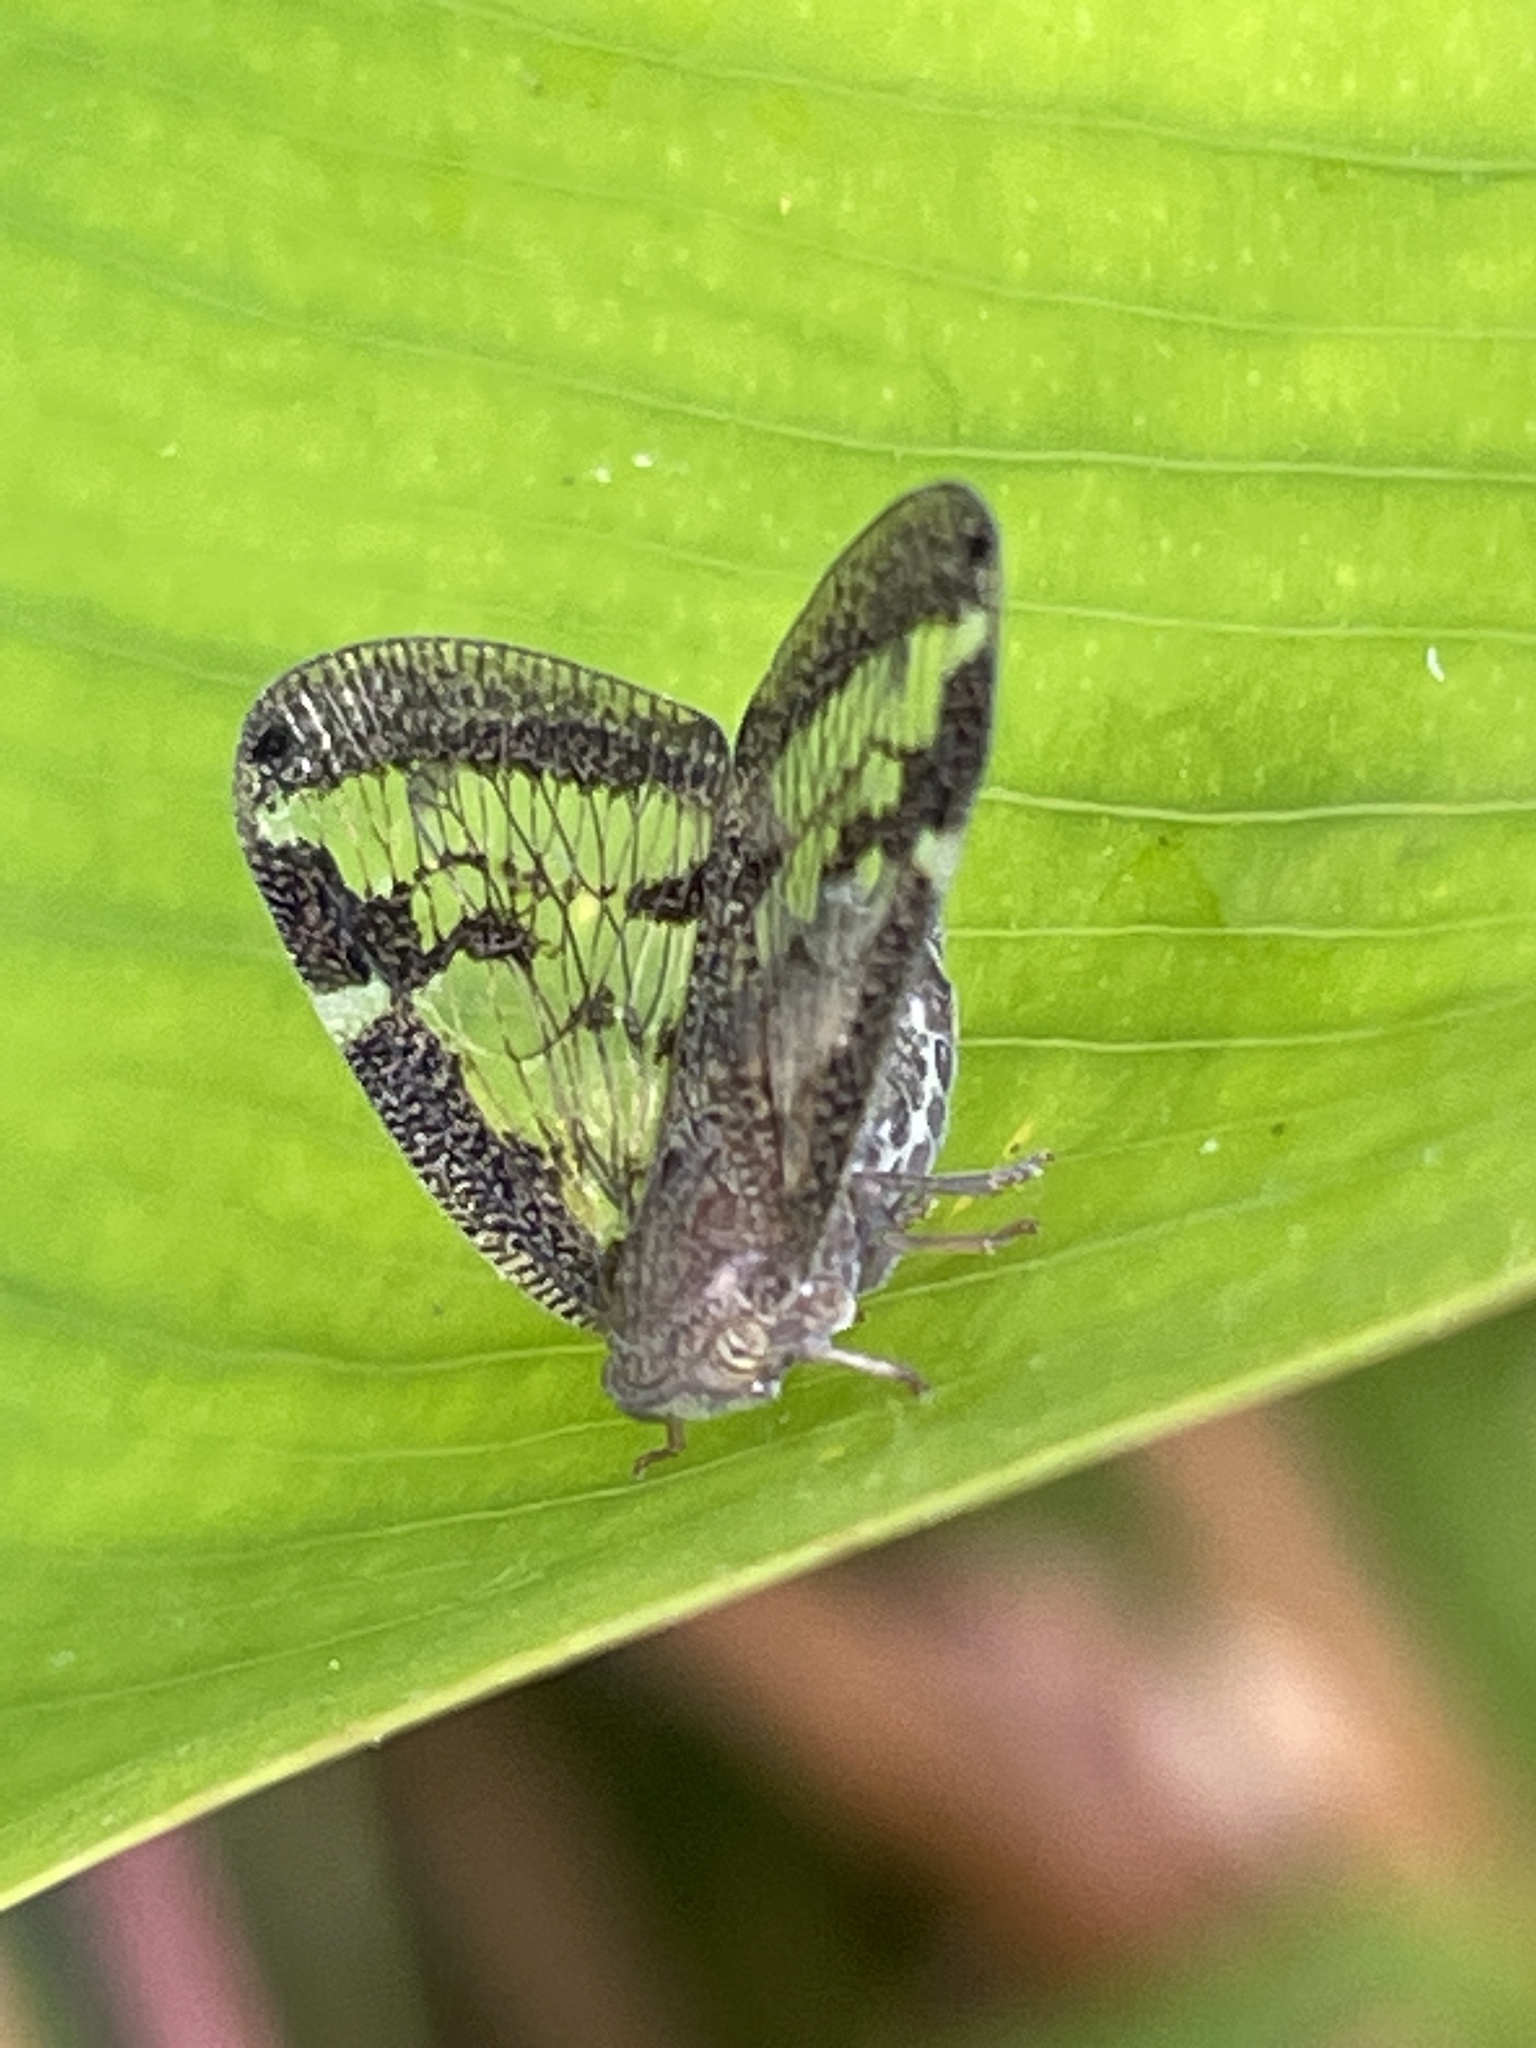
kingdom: Animalia
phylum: Arthropoda
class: Insecta
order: Hemiptera
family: Ricaniidae
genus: Scolypopa
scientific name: Scolypopa australis
